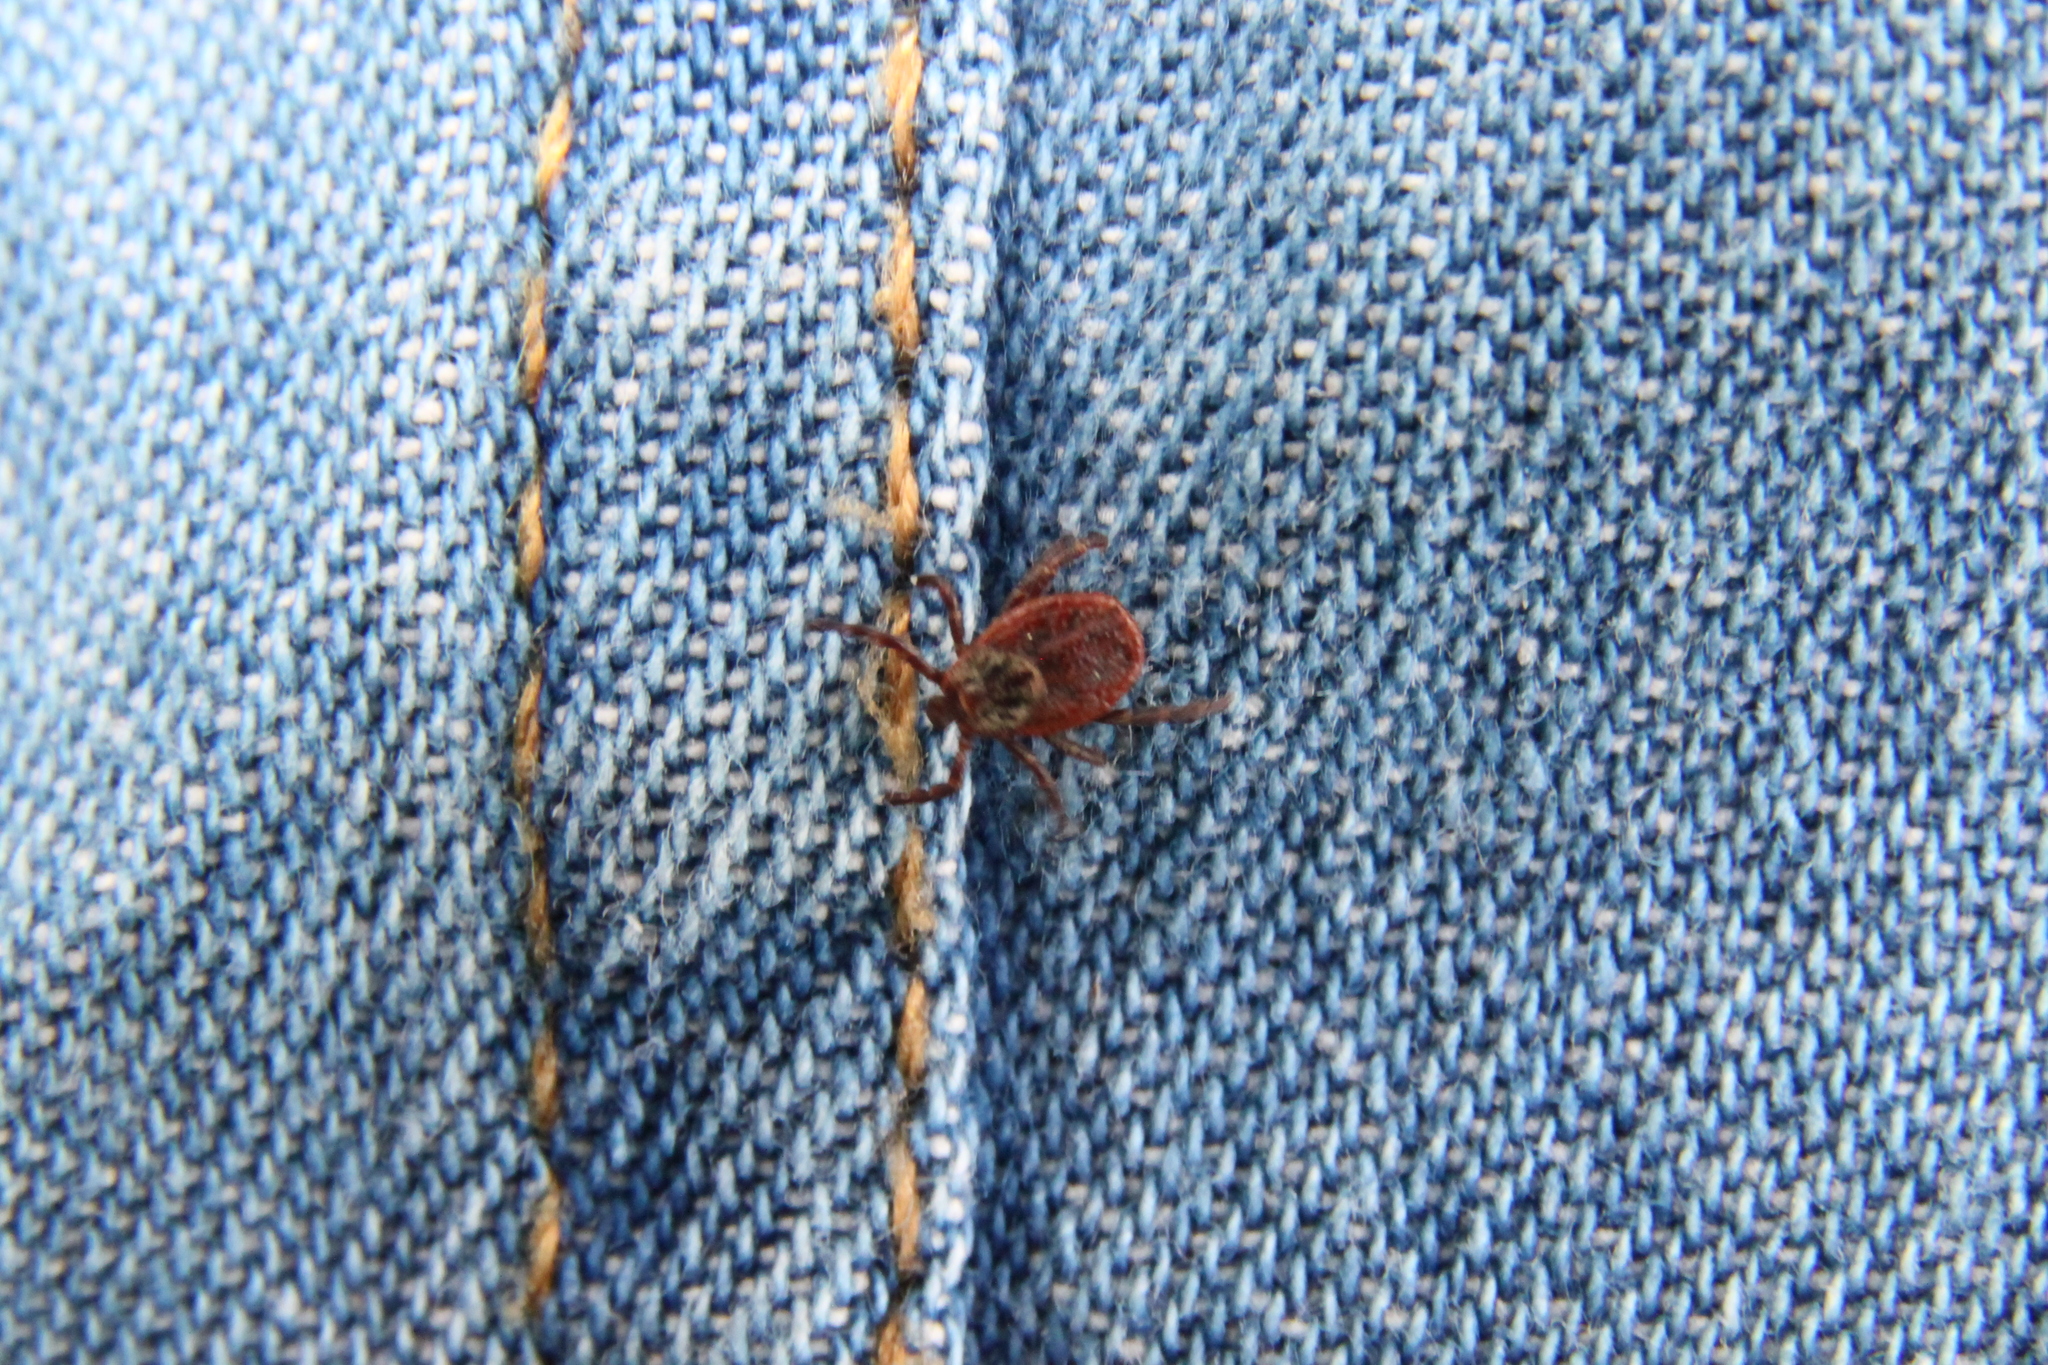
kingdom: Animalia
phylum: Arthropoda
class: Arachnida
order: Ixodida
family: Ixodidae
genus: Dermacentor
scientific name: Dermacentor reticulatus
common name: Ornate cow tick
